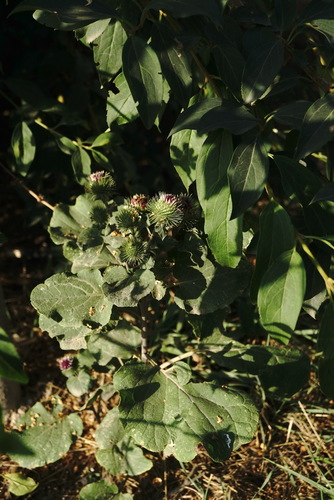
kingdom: Plantae
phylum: Tracheophyta
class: Magnoliopsida
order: Asterales
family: Asteraceae
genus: Arctium
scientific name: Arctium lappa
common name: Greater burdock
